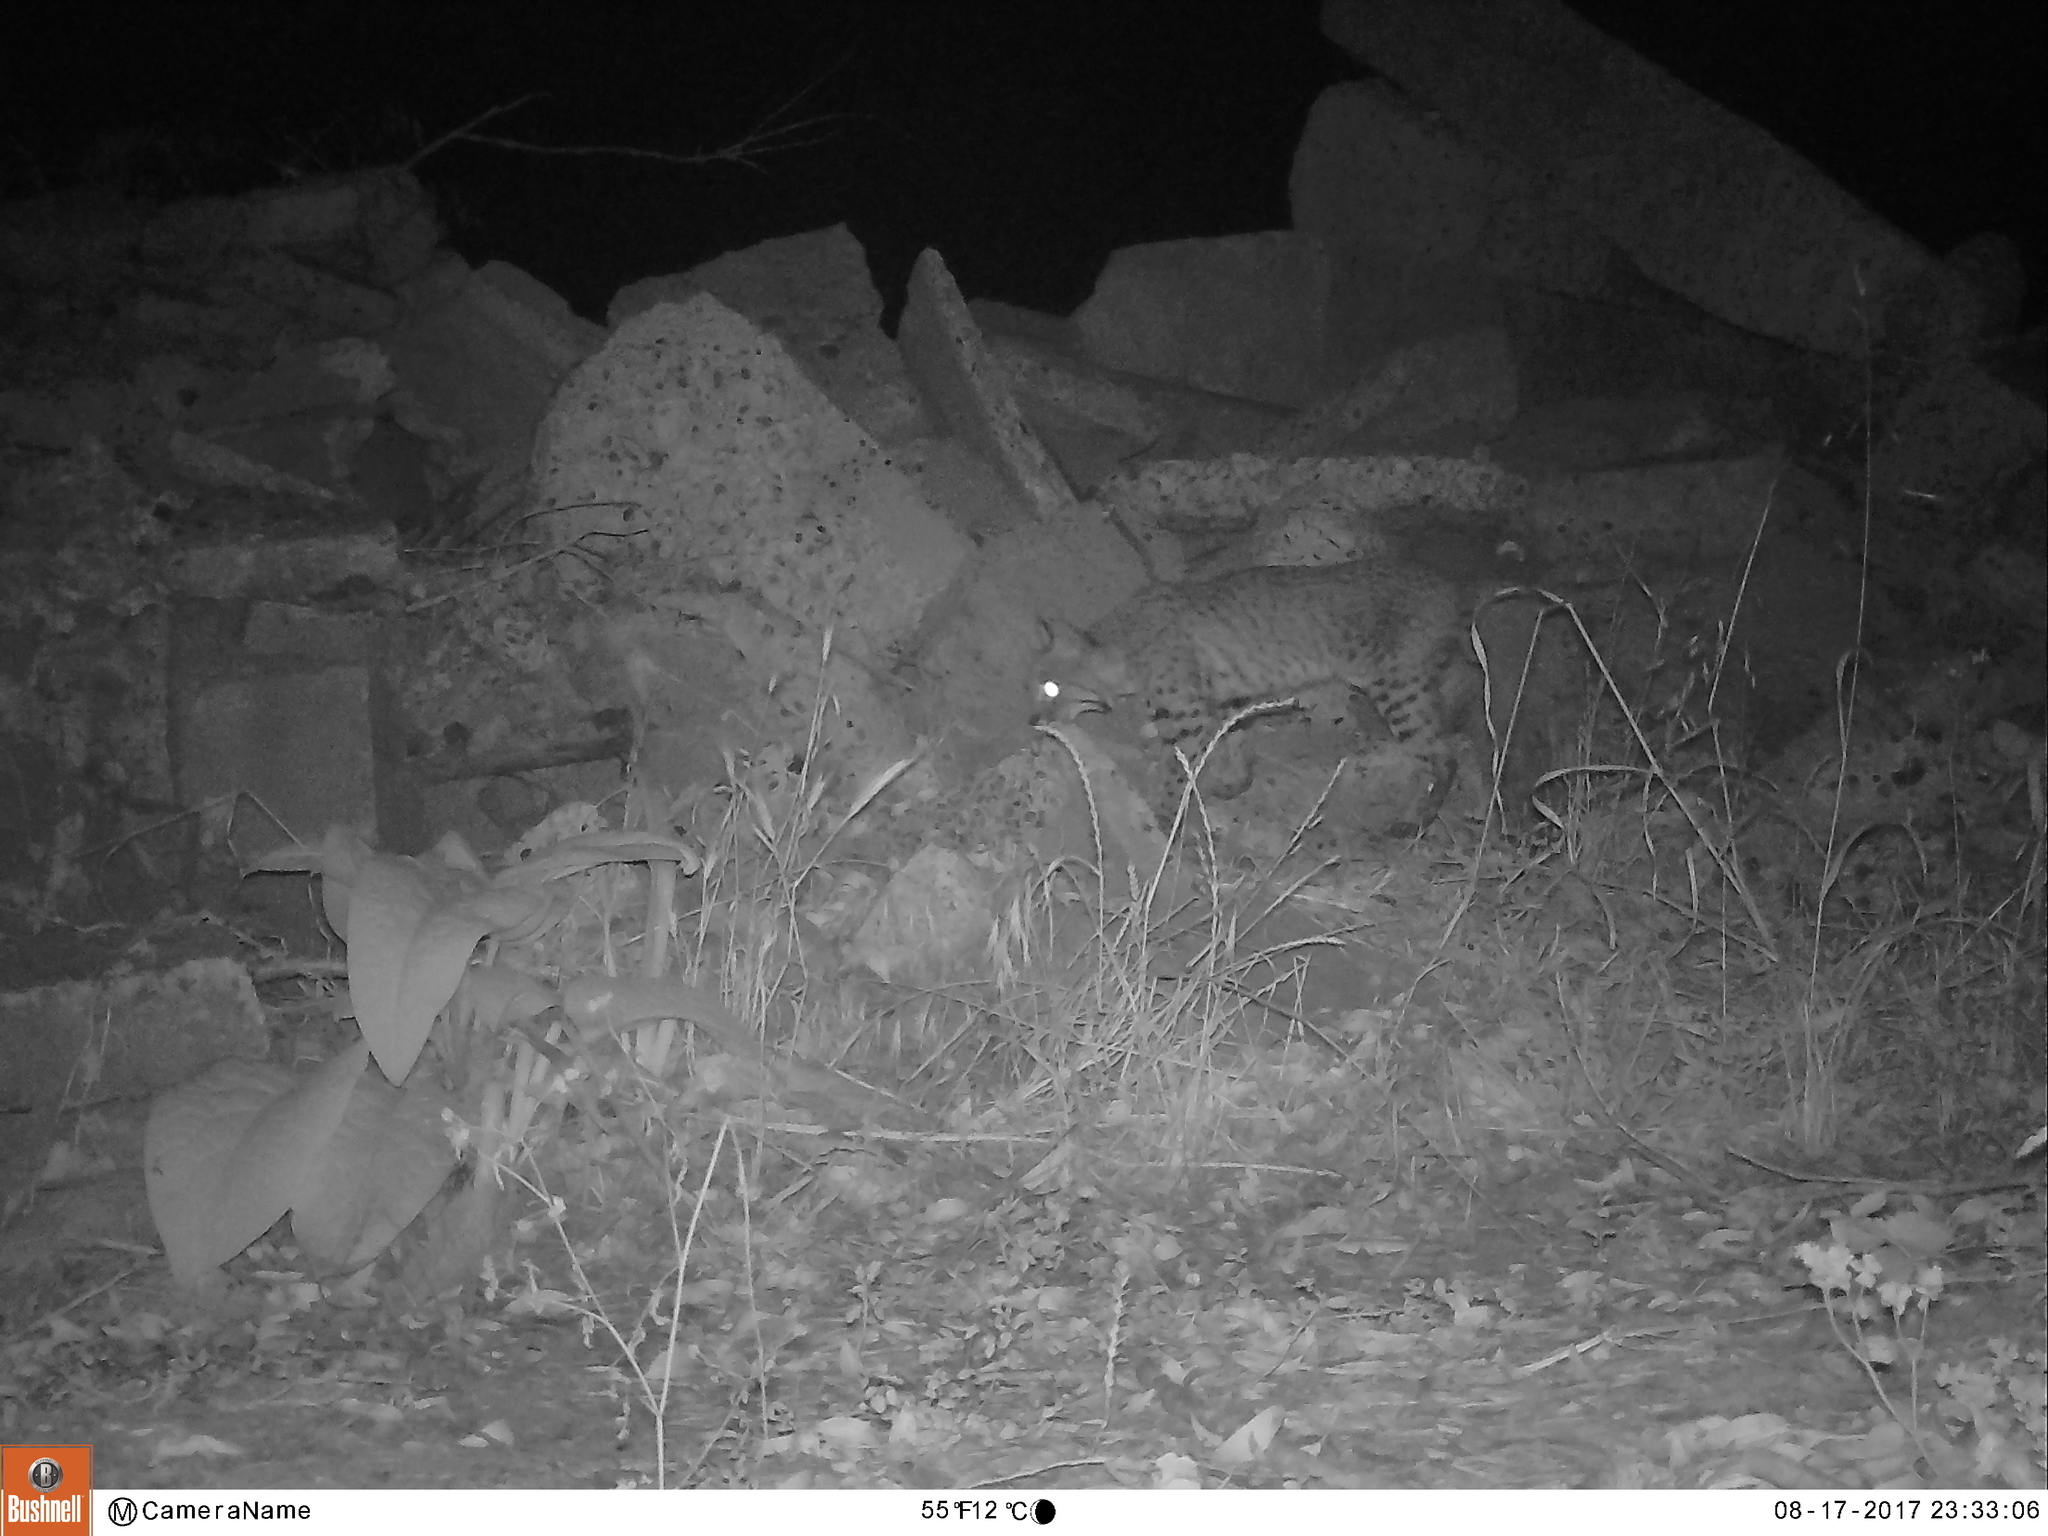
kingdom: Animalia
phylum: Chordata
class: Mammalia
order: Carnivora
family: Felidae
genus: Lynx
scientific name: Lynx rufus
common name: Bobcat
